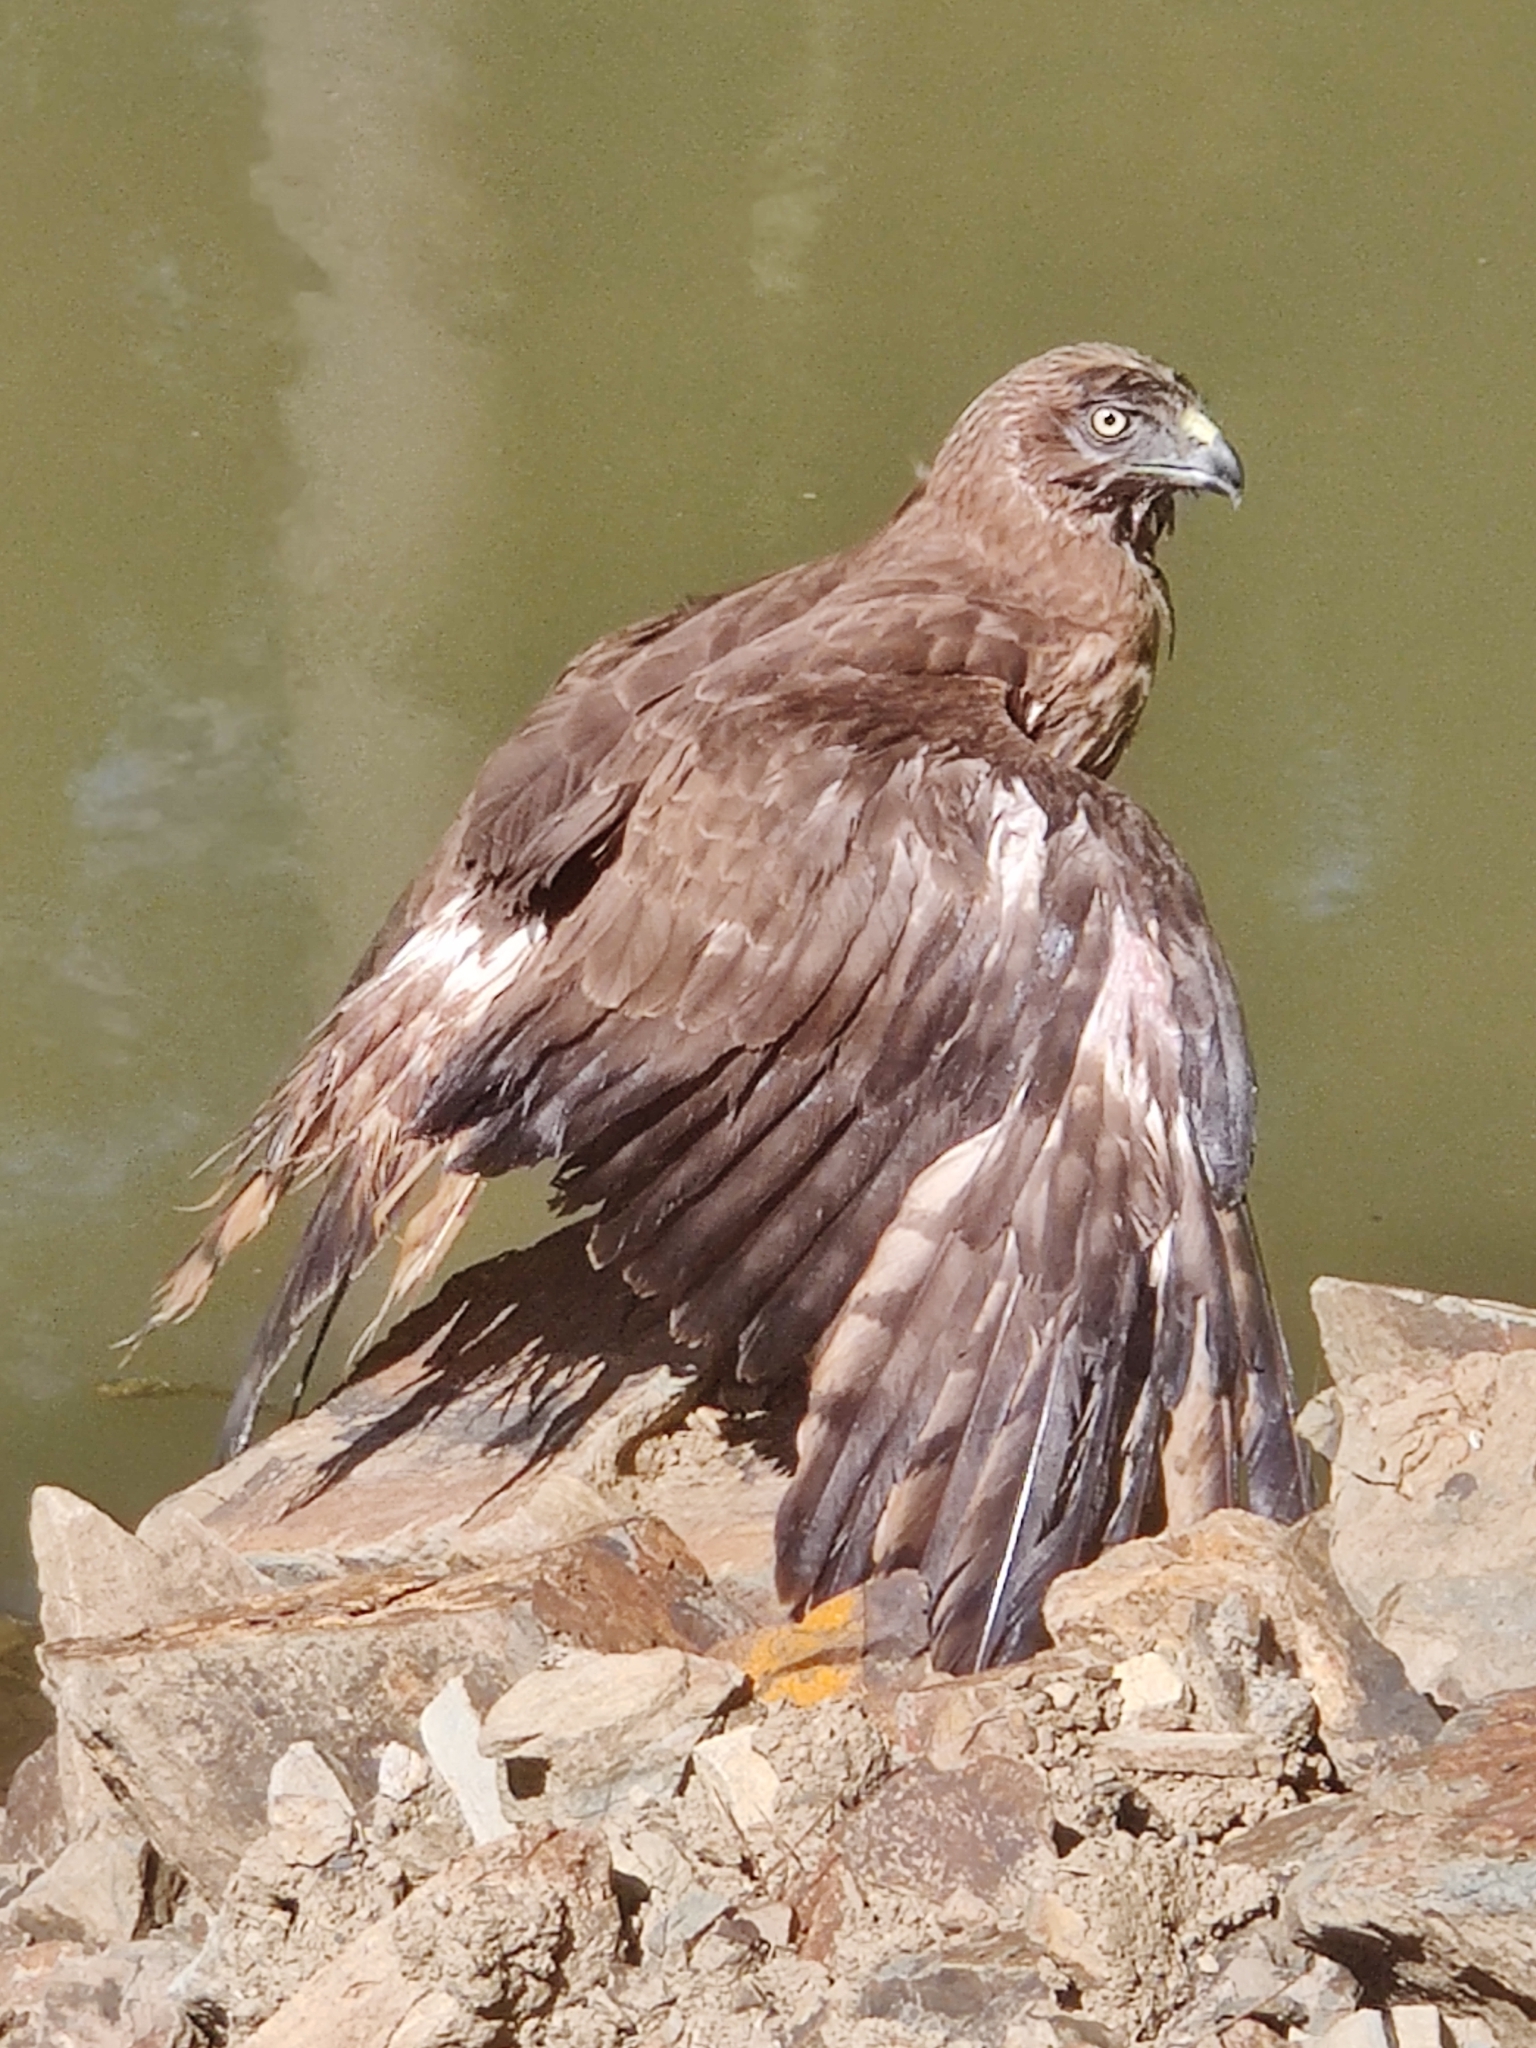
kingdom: Animalia
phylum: Chordata
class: Aves
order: Accipitriformes
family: Accipitridae
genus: Circus
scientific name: Circus approximans
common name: Swamp harrier
